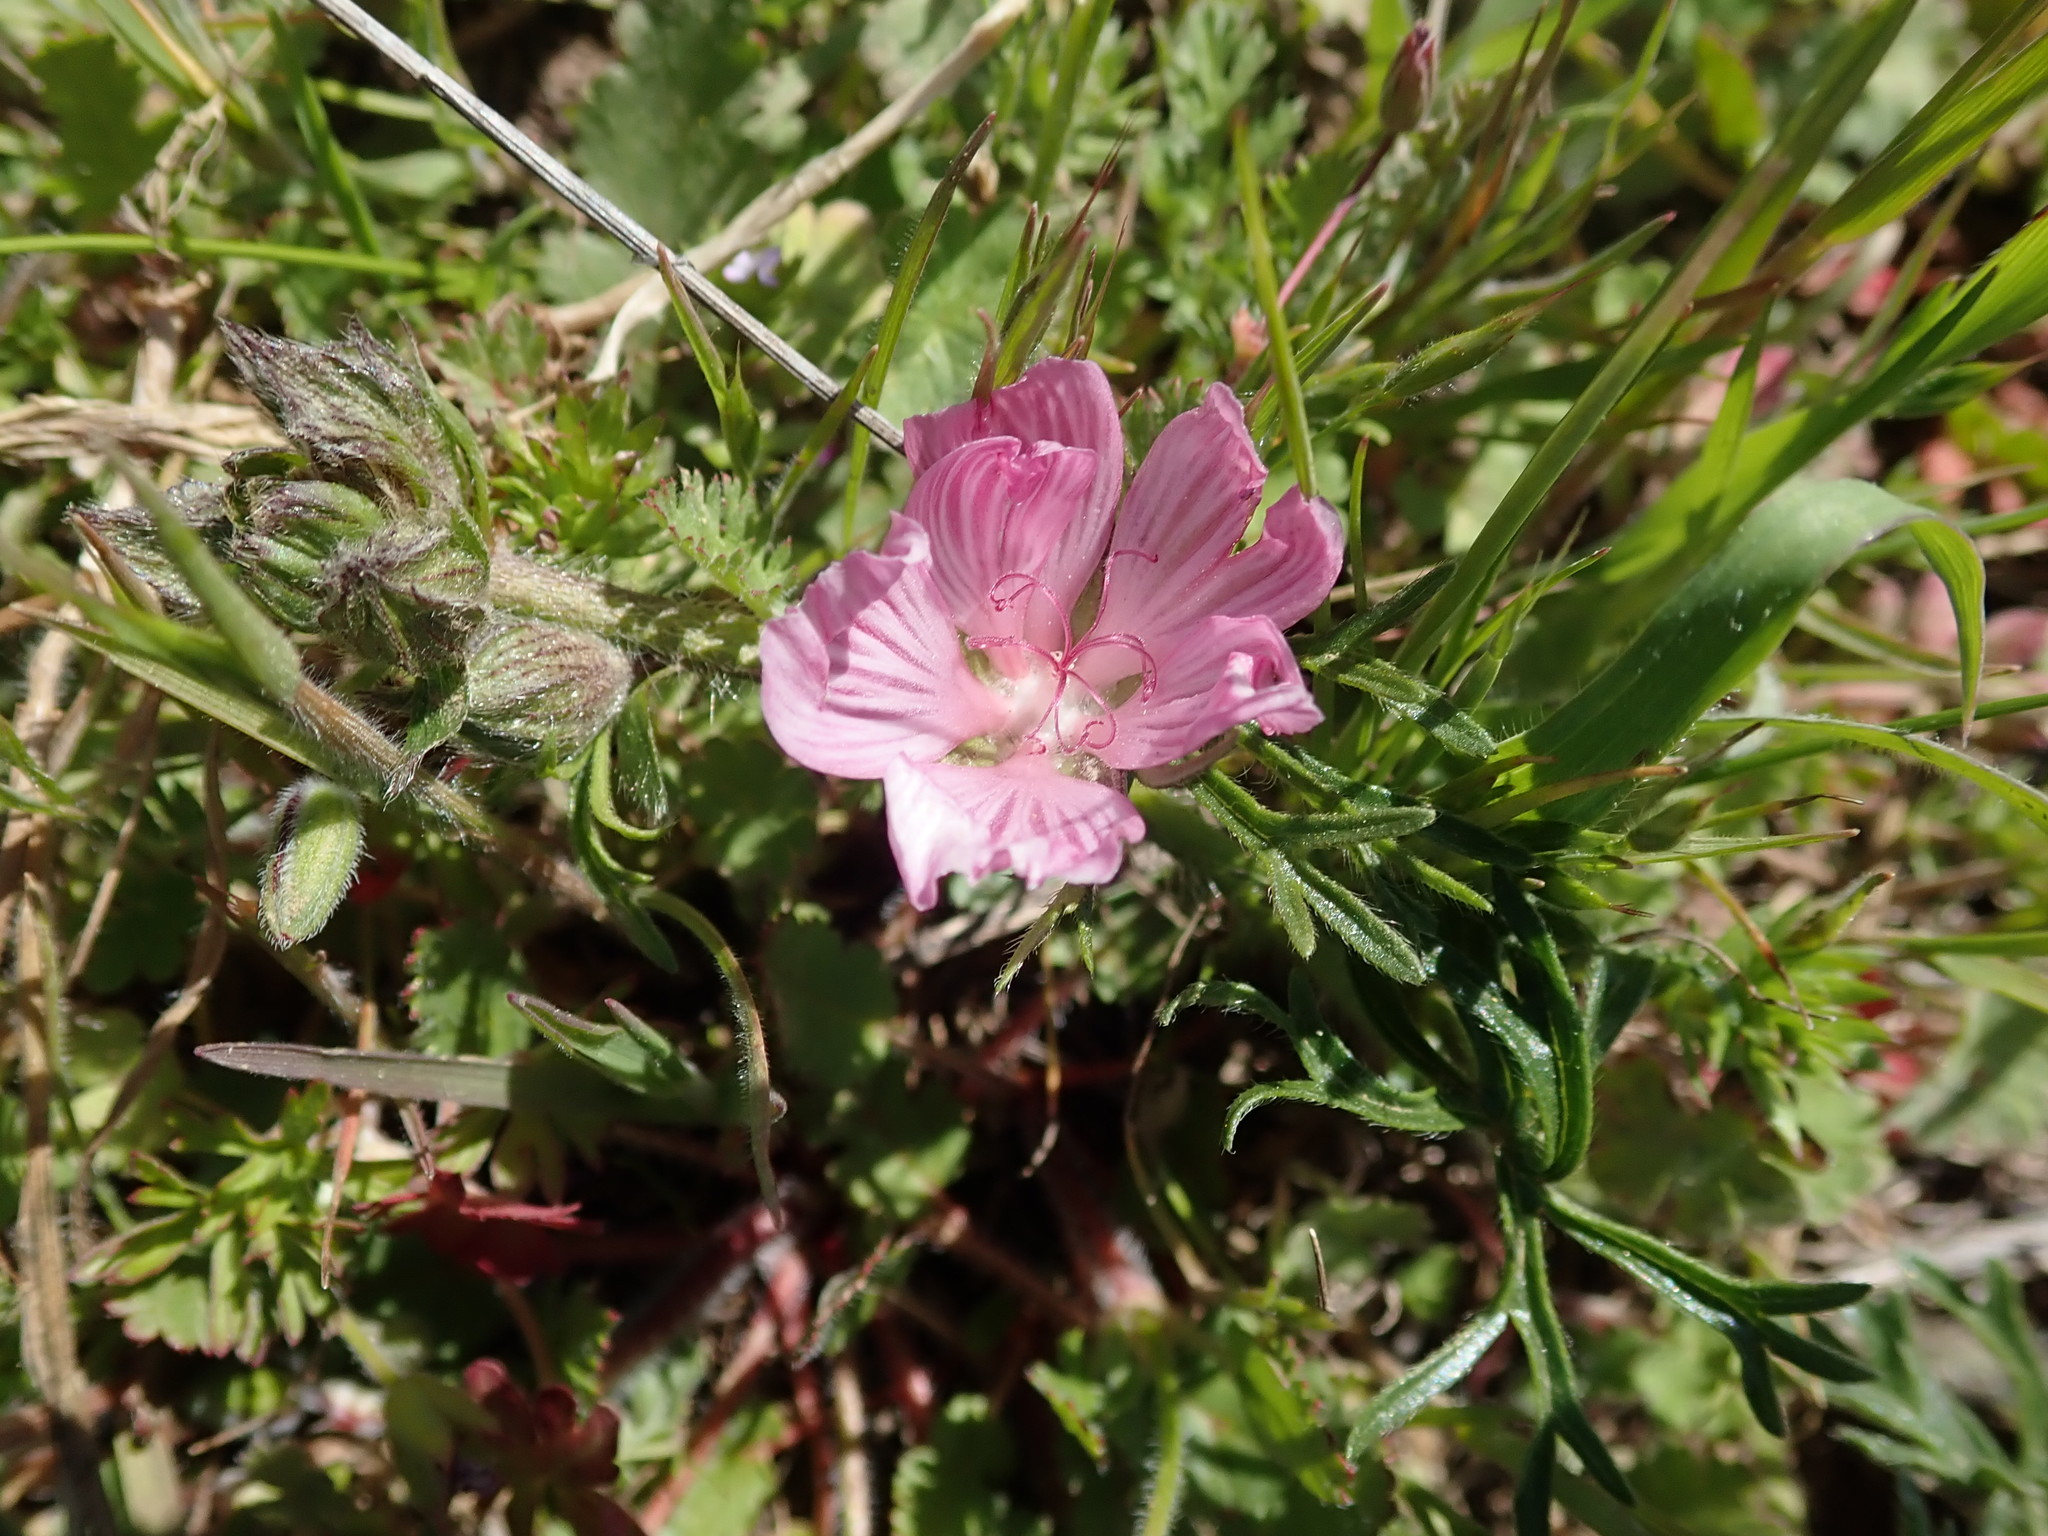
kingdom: Plantae
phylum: Tracheophyta
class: Magnoliopsida
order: Malvales
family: Malvaceae
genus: Sidalcea
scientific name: Sidalcea malviflora
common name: Greek mallow
